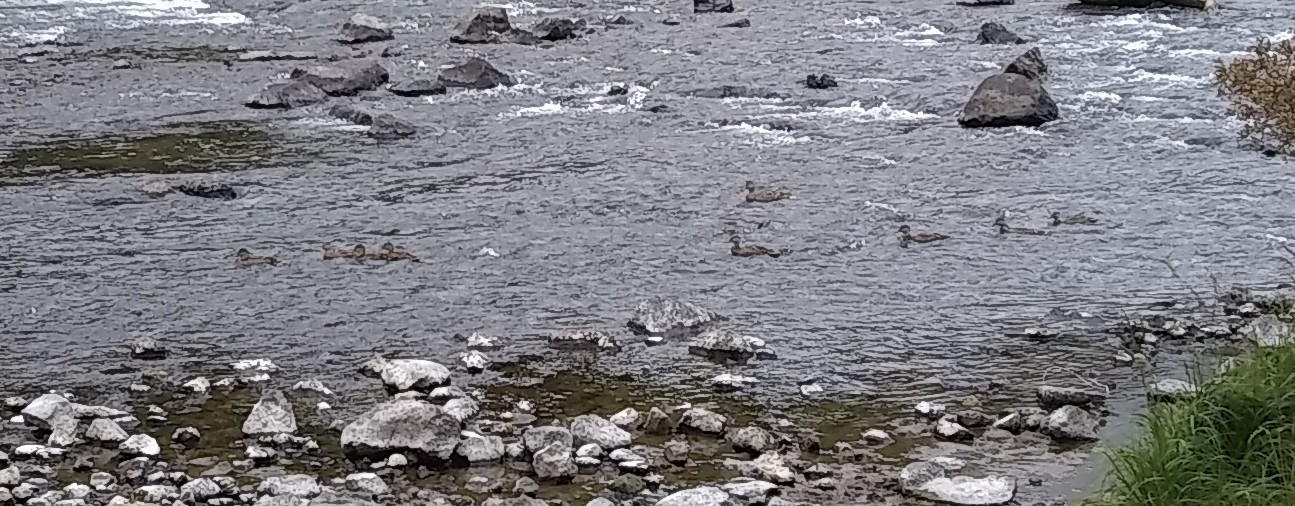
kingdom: Animalia
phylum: Chordata
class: Aves
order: Anseriformes
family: Anatidae
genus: Anas
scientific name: Anas platyrhynchos
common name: Mallard
